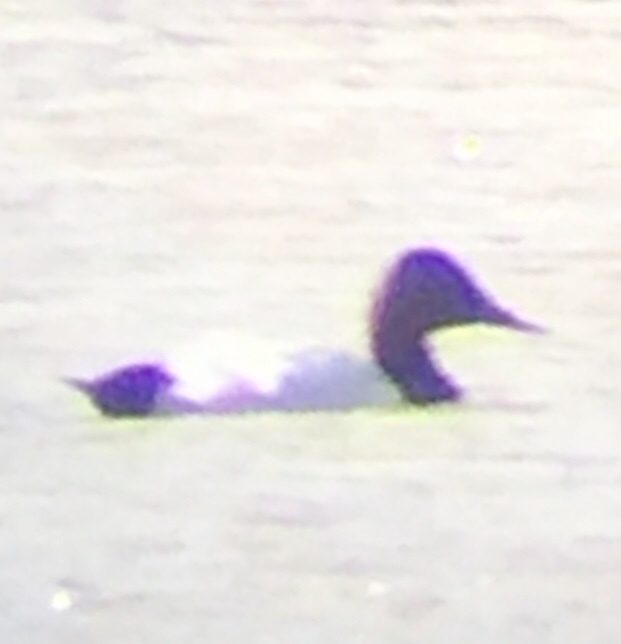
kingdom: Animalia
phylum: Chordata
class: Aves
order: Anseriformes
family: Anatidae
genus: Aythya
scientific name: Aythya valisineria
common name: Canvasback
